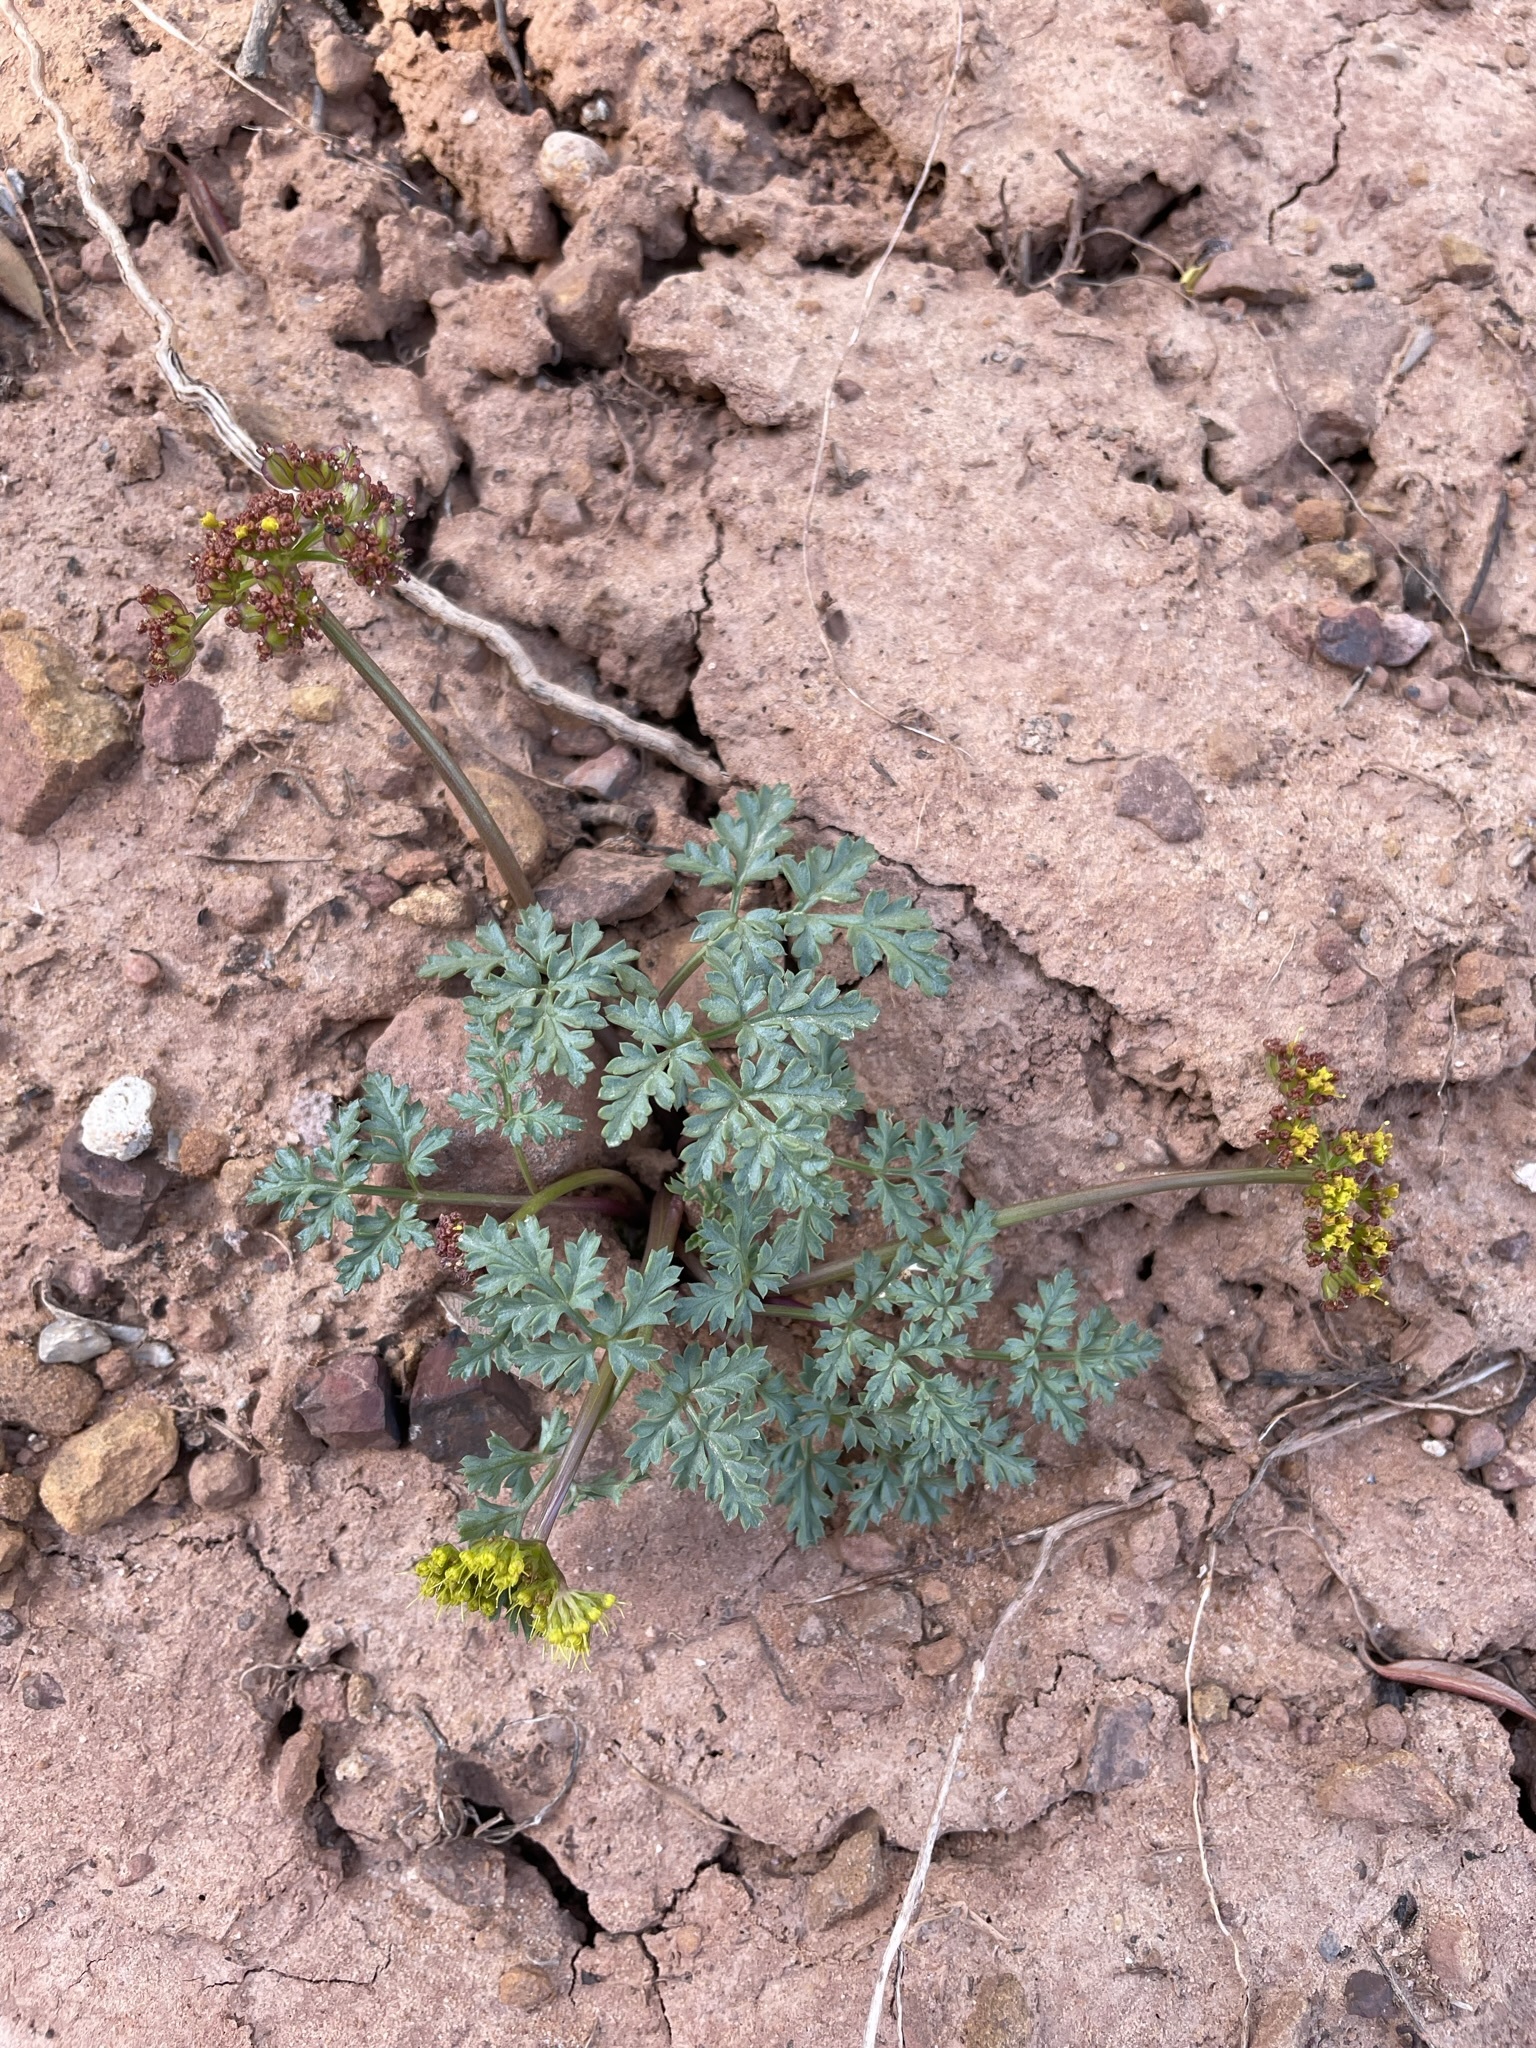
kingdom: Plantae
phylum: Tracheophyta
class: Magnoliopsida
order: Apiales
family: Apiaceae
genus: Aulospermum
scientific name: Aulospermum purpureum
